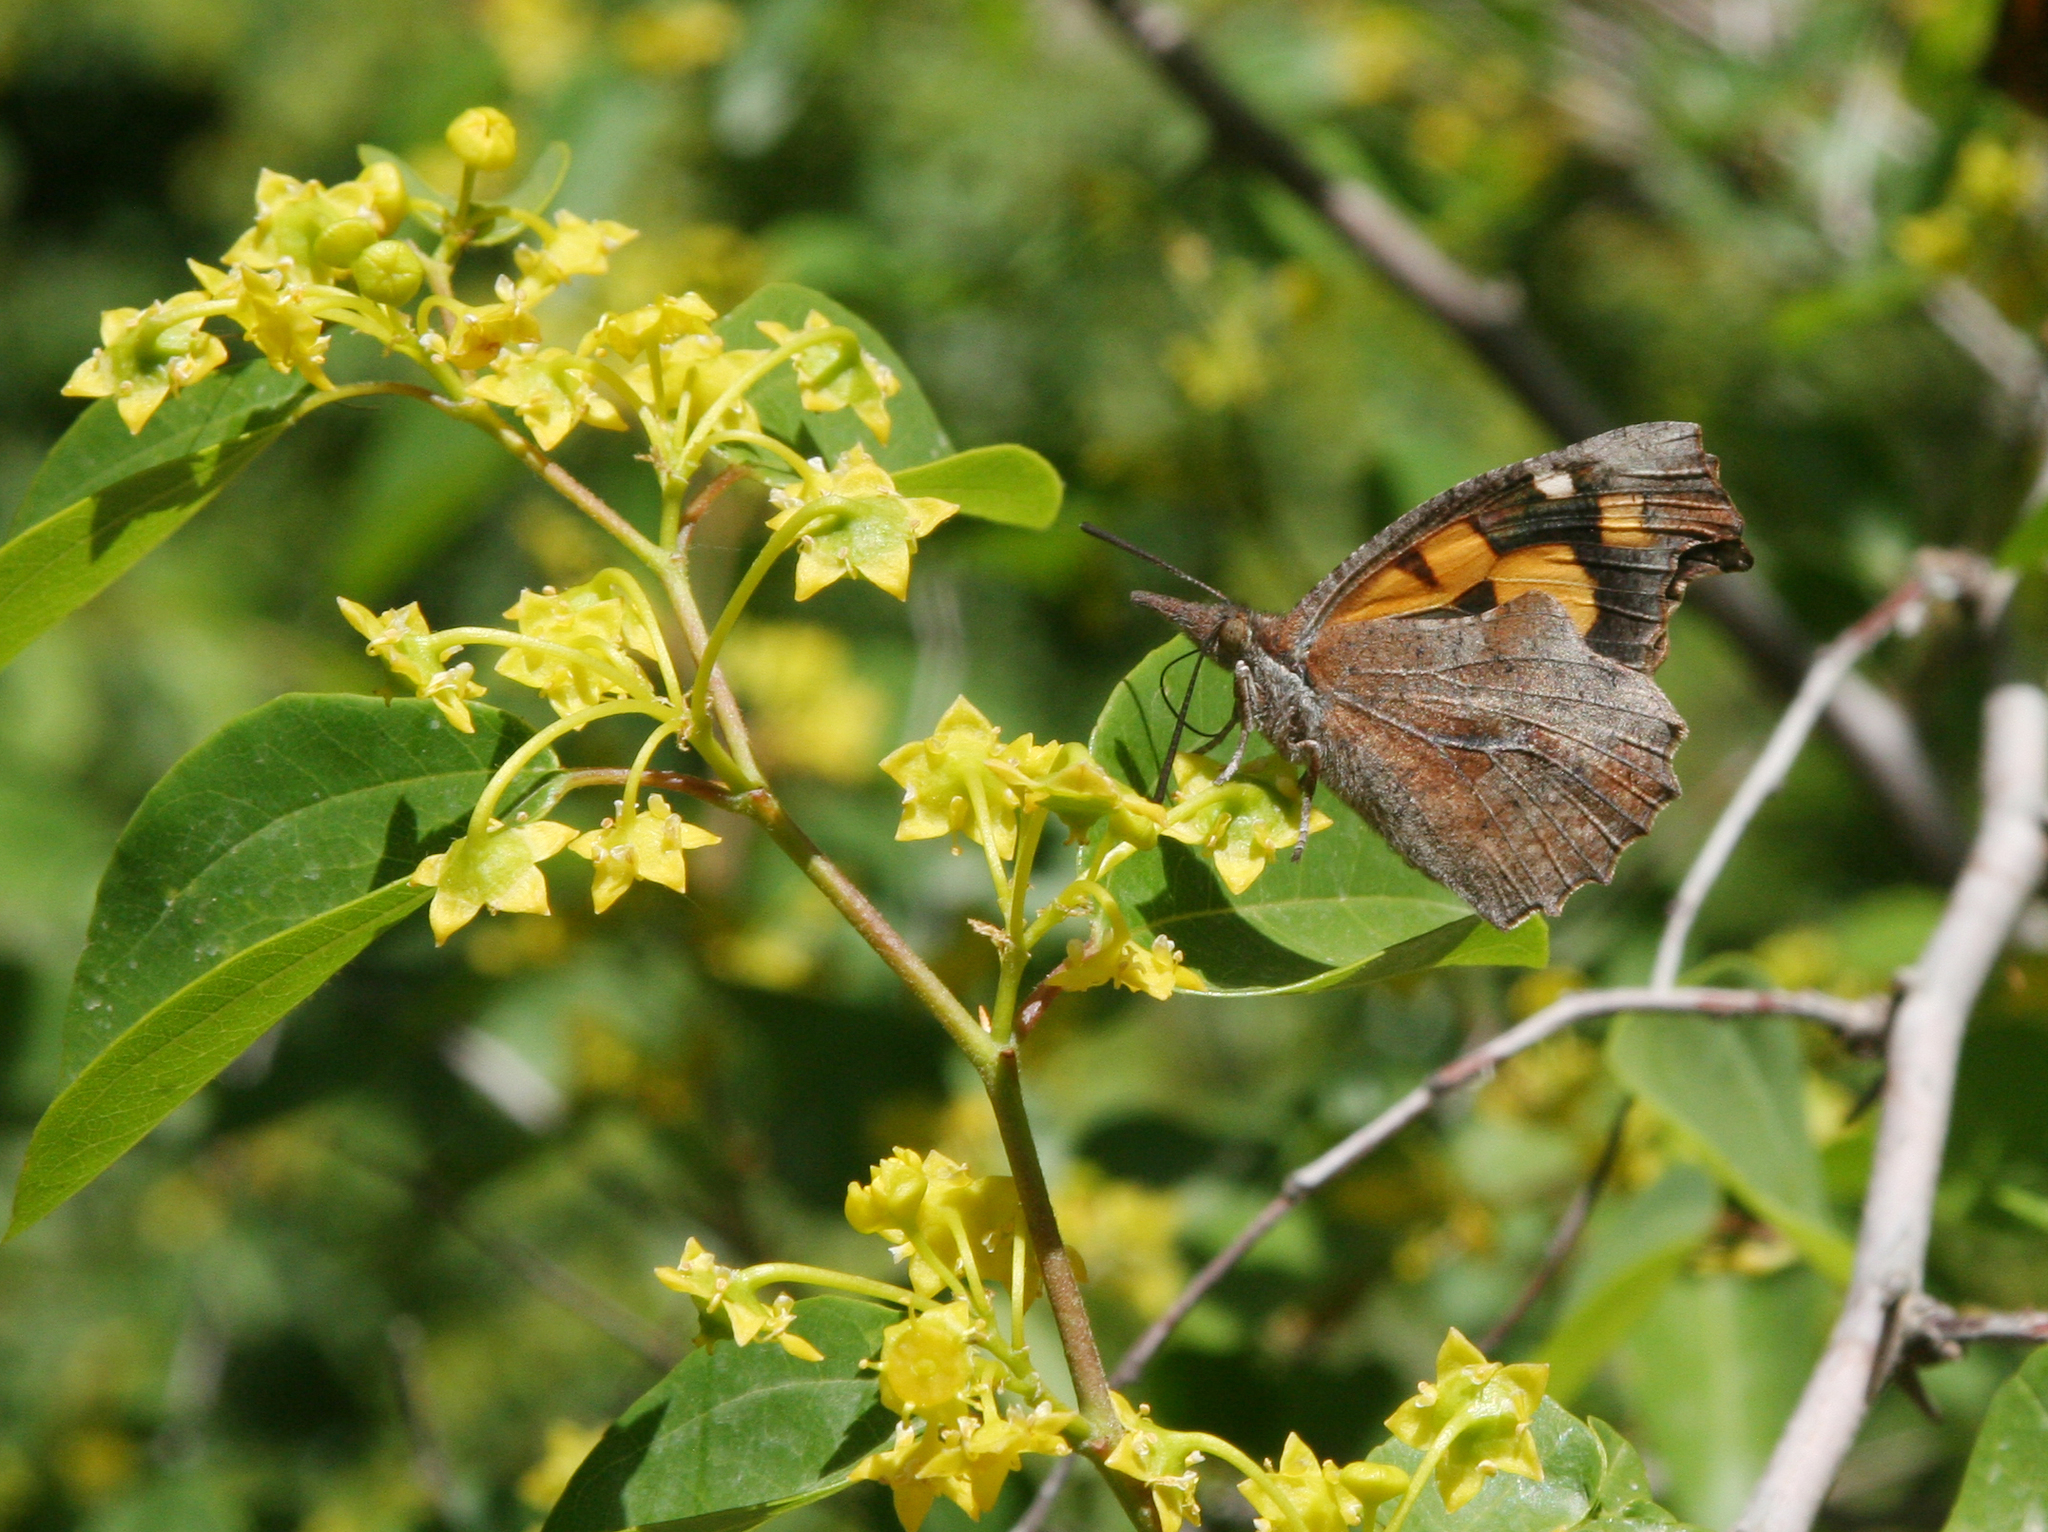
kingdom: Animalia
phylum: Arthropoda
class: Insecta
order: Lepidoptera
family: Nymphalidae
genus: Libythea
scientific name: Libythea celtis
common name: Nettle-tree butterfly
